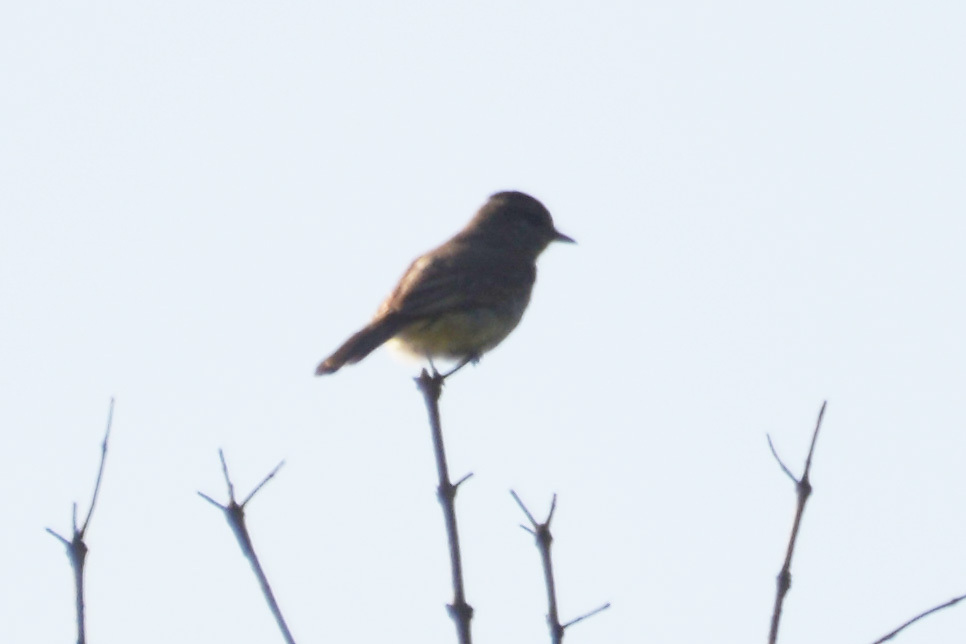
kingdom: Animalia
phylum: Chordata
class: Aves
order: Passeriformes
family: Tyrannidae
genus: Empidonomus
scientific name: Empidonomus aurantioatrocristatus
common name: Crowned slaty flycatcher
